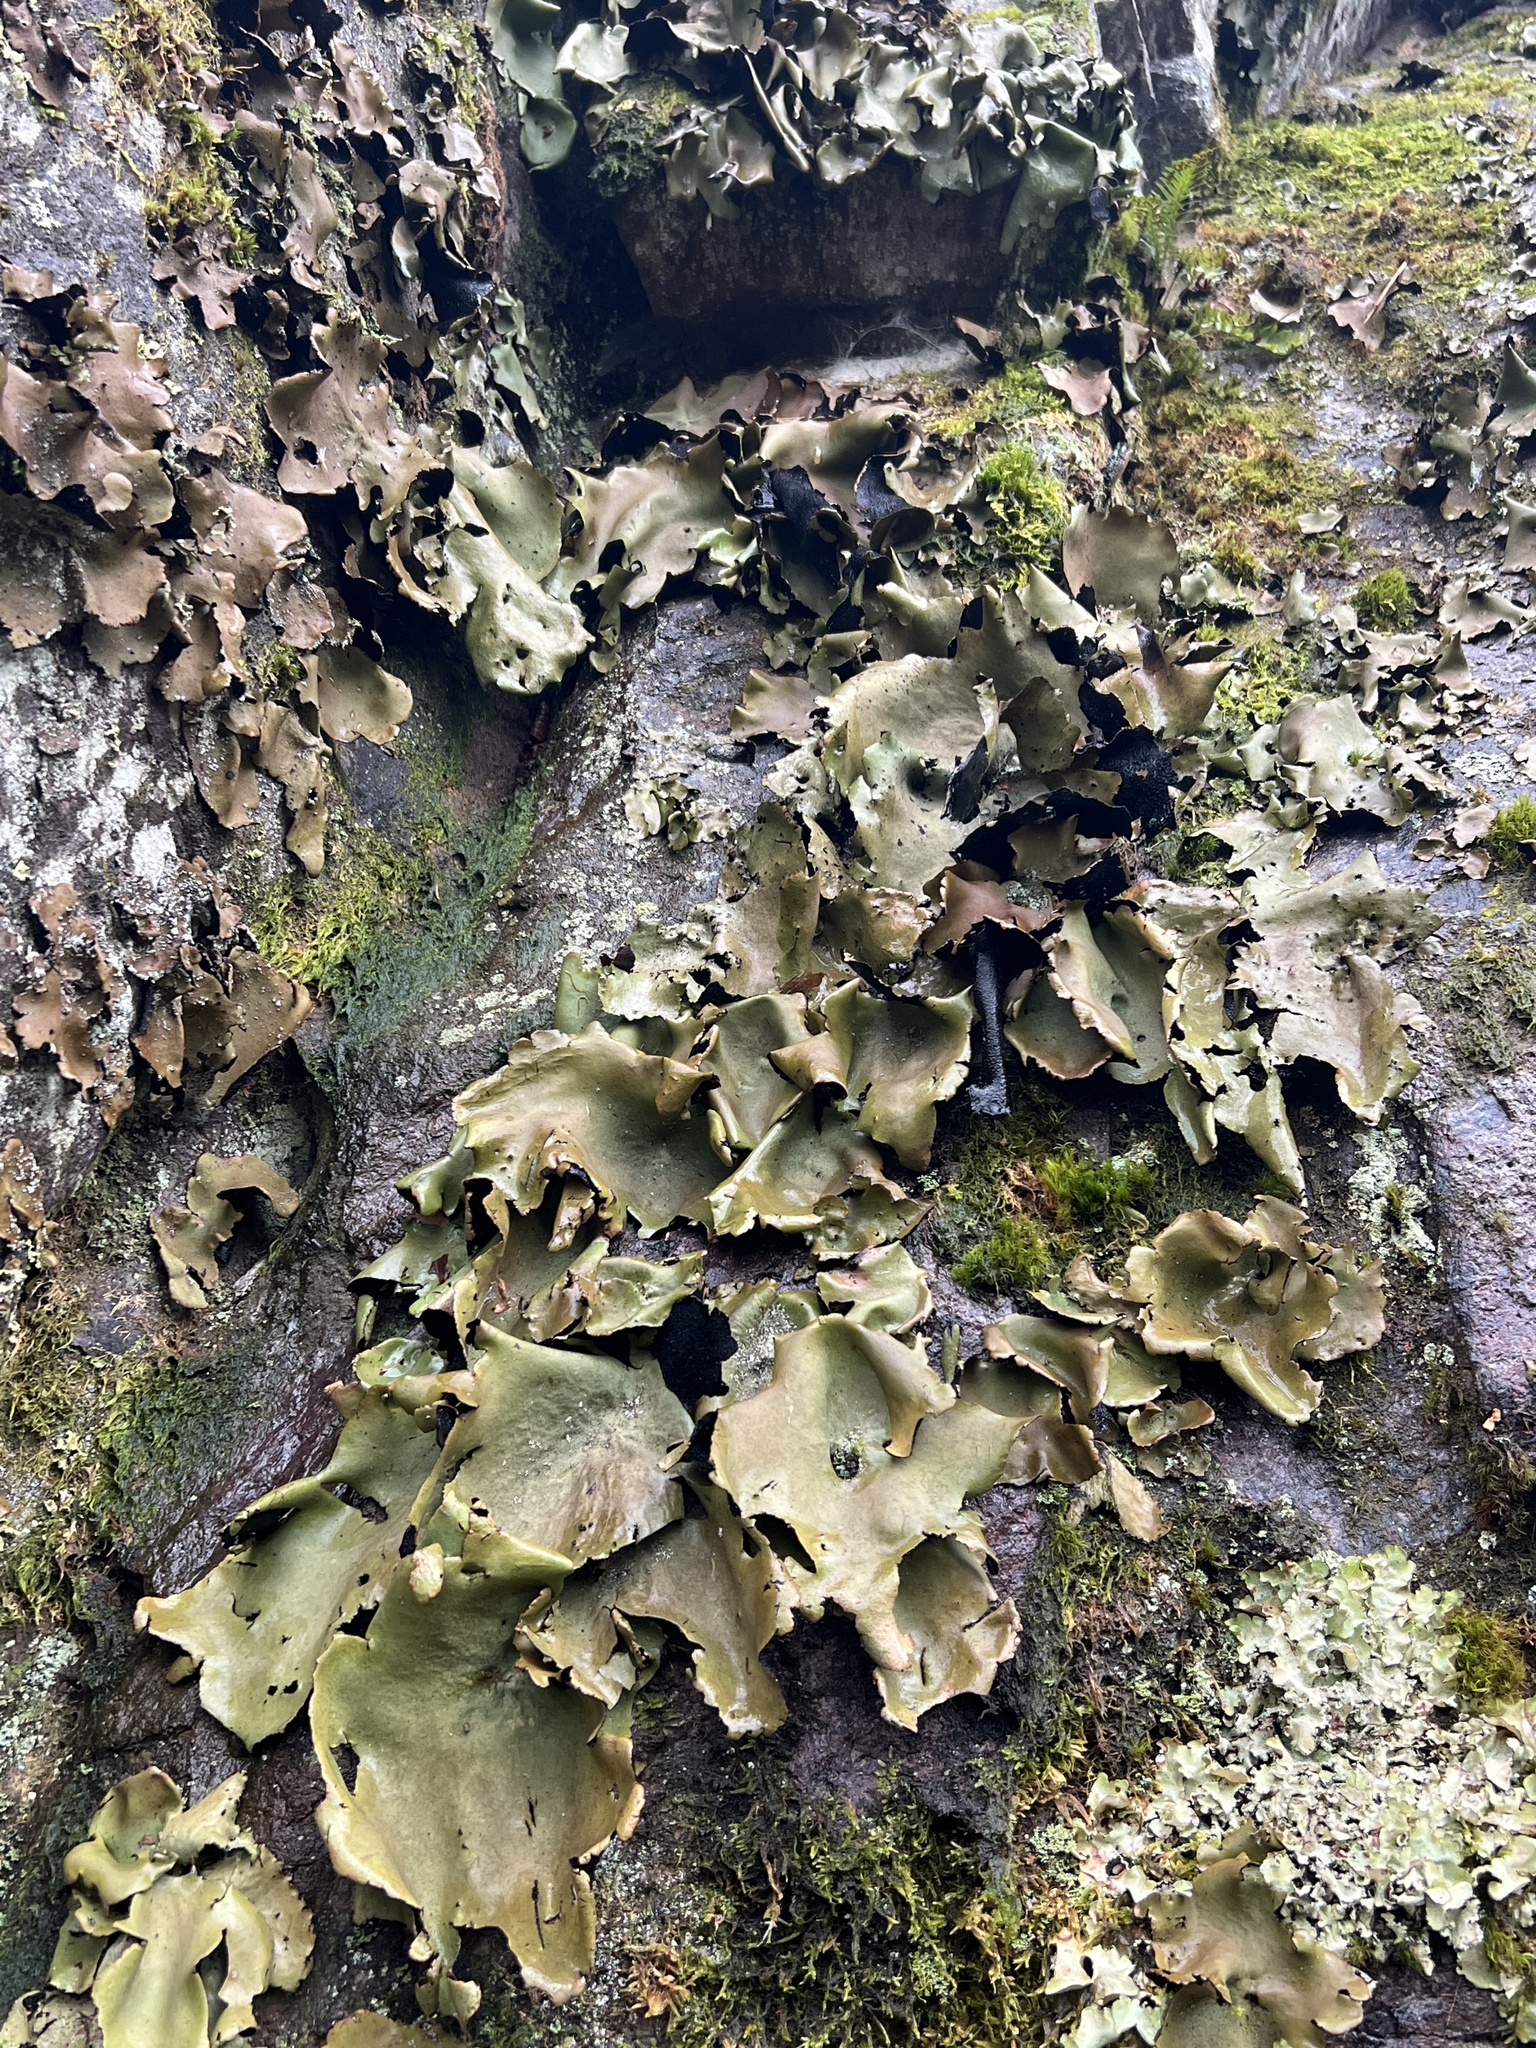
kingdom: Fungi
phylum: Ascomycota
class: Lecanoromycetes
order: Umbilicariales
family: Umbilicariaceae
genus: Umbilicaria
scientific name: Umbilicaria mammulata
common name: Smooth rock tripe
